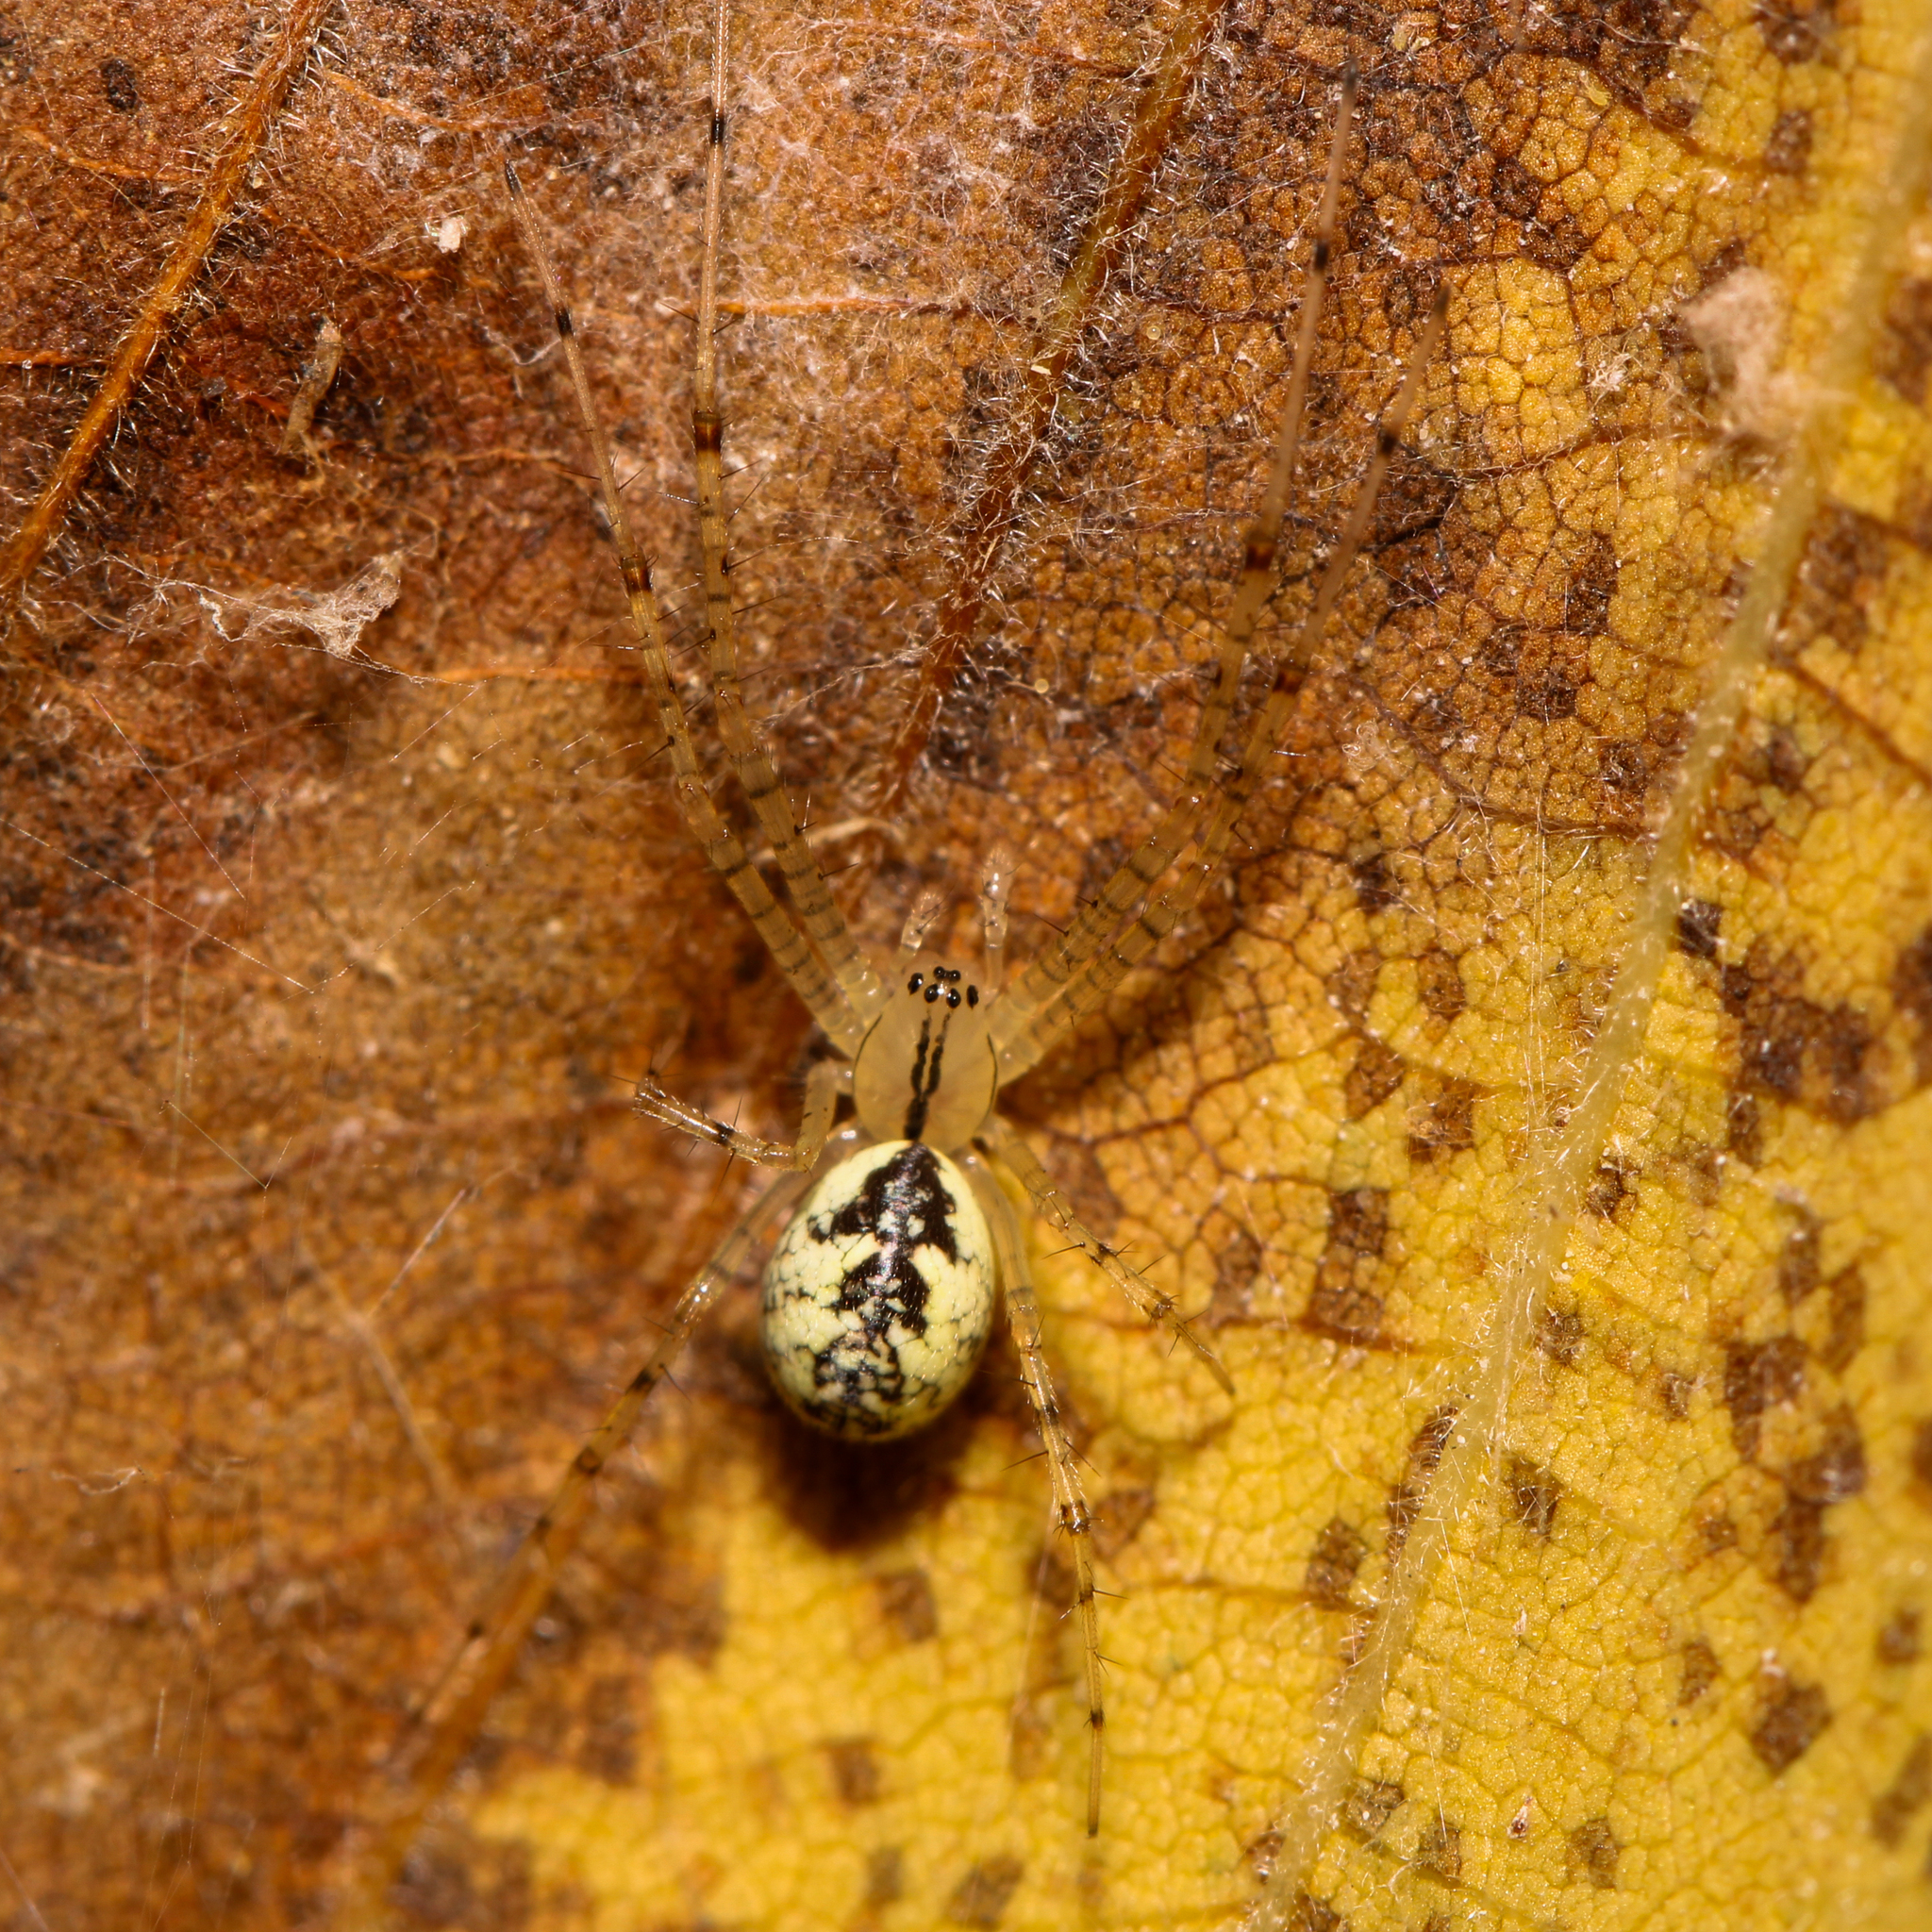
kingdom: Animalia
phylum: Arthropoda
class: Arachnida
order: Araneae
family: Linyphiidae
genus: Pityohyphantes
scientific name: Pityohyphantes costatus
